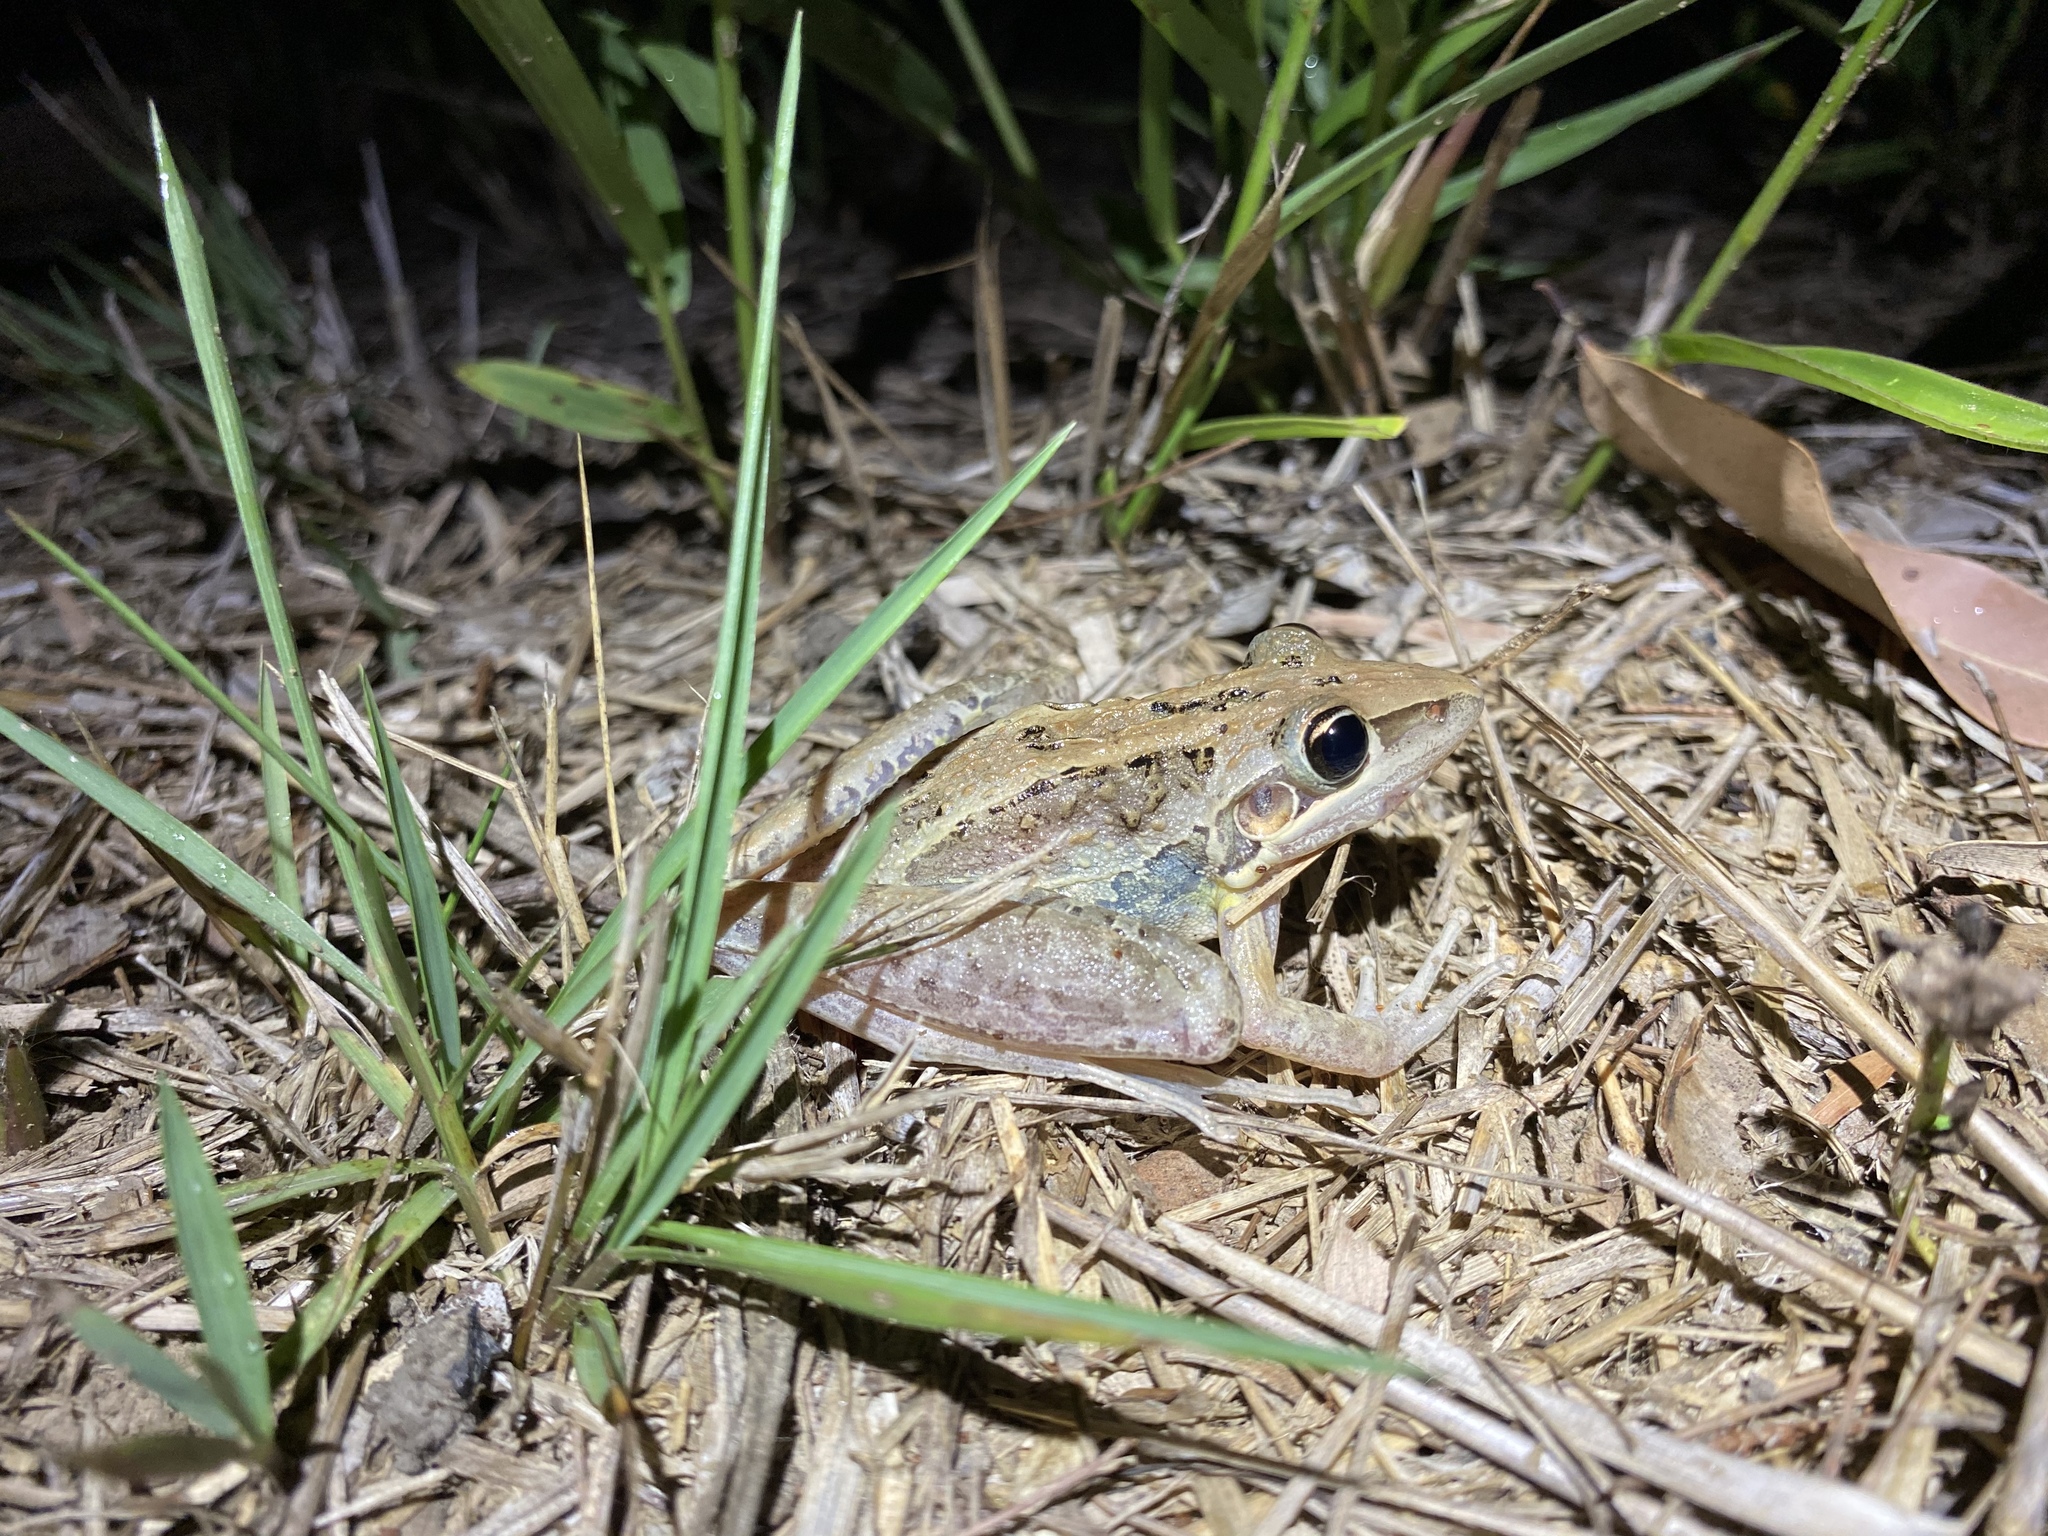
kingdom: Animalia
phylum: Chordata
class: Amphibia
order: Anura
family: Pelodryadidae
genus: Litoria
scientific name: Litoria nasuta
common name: Rocket frog
